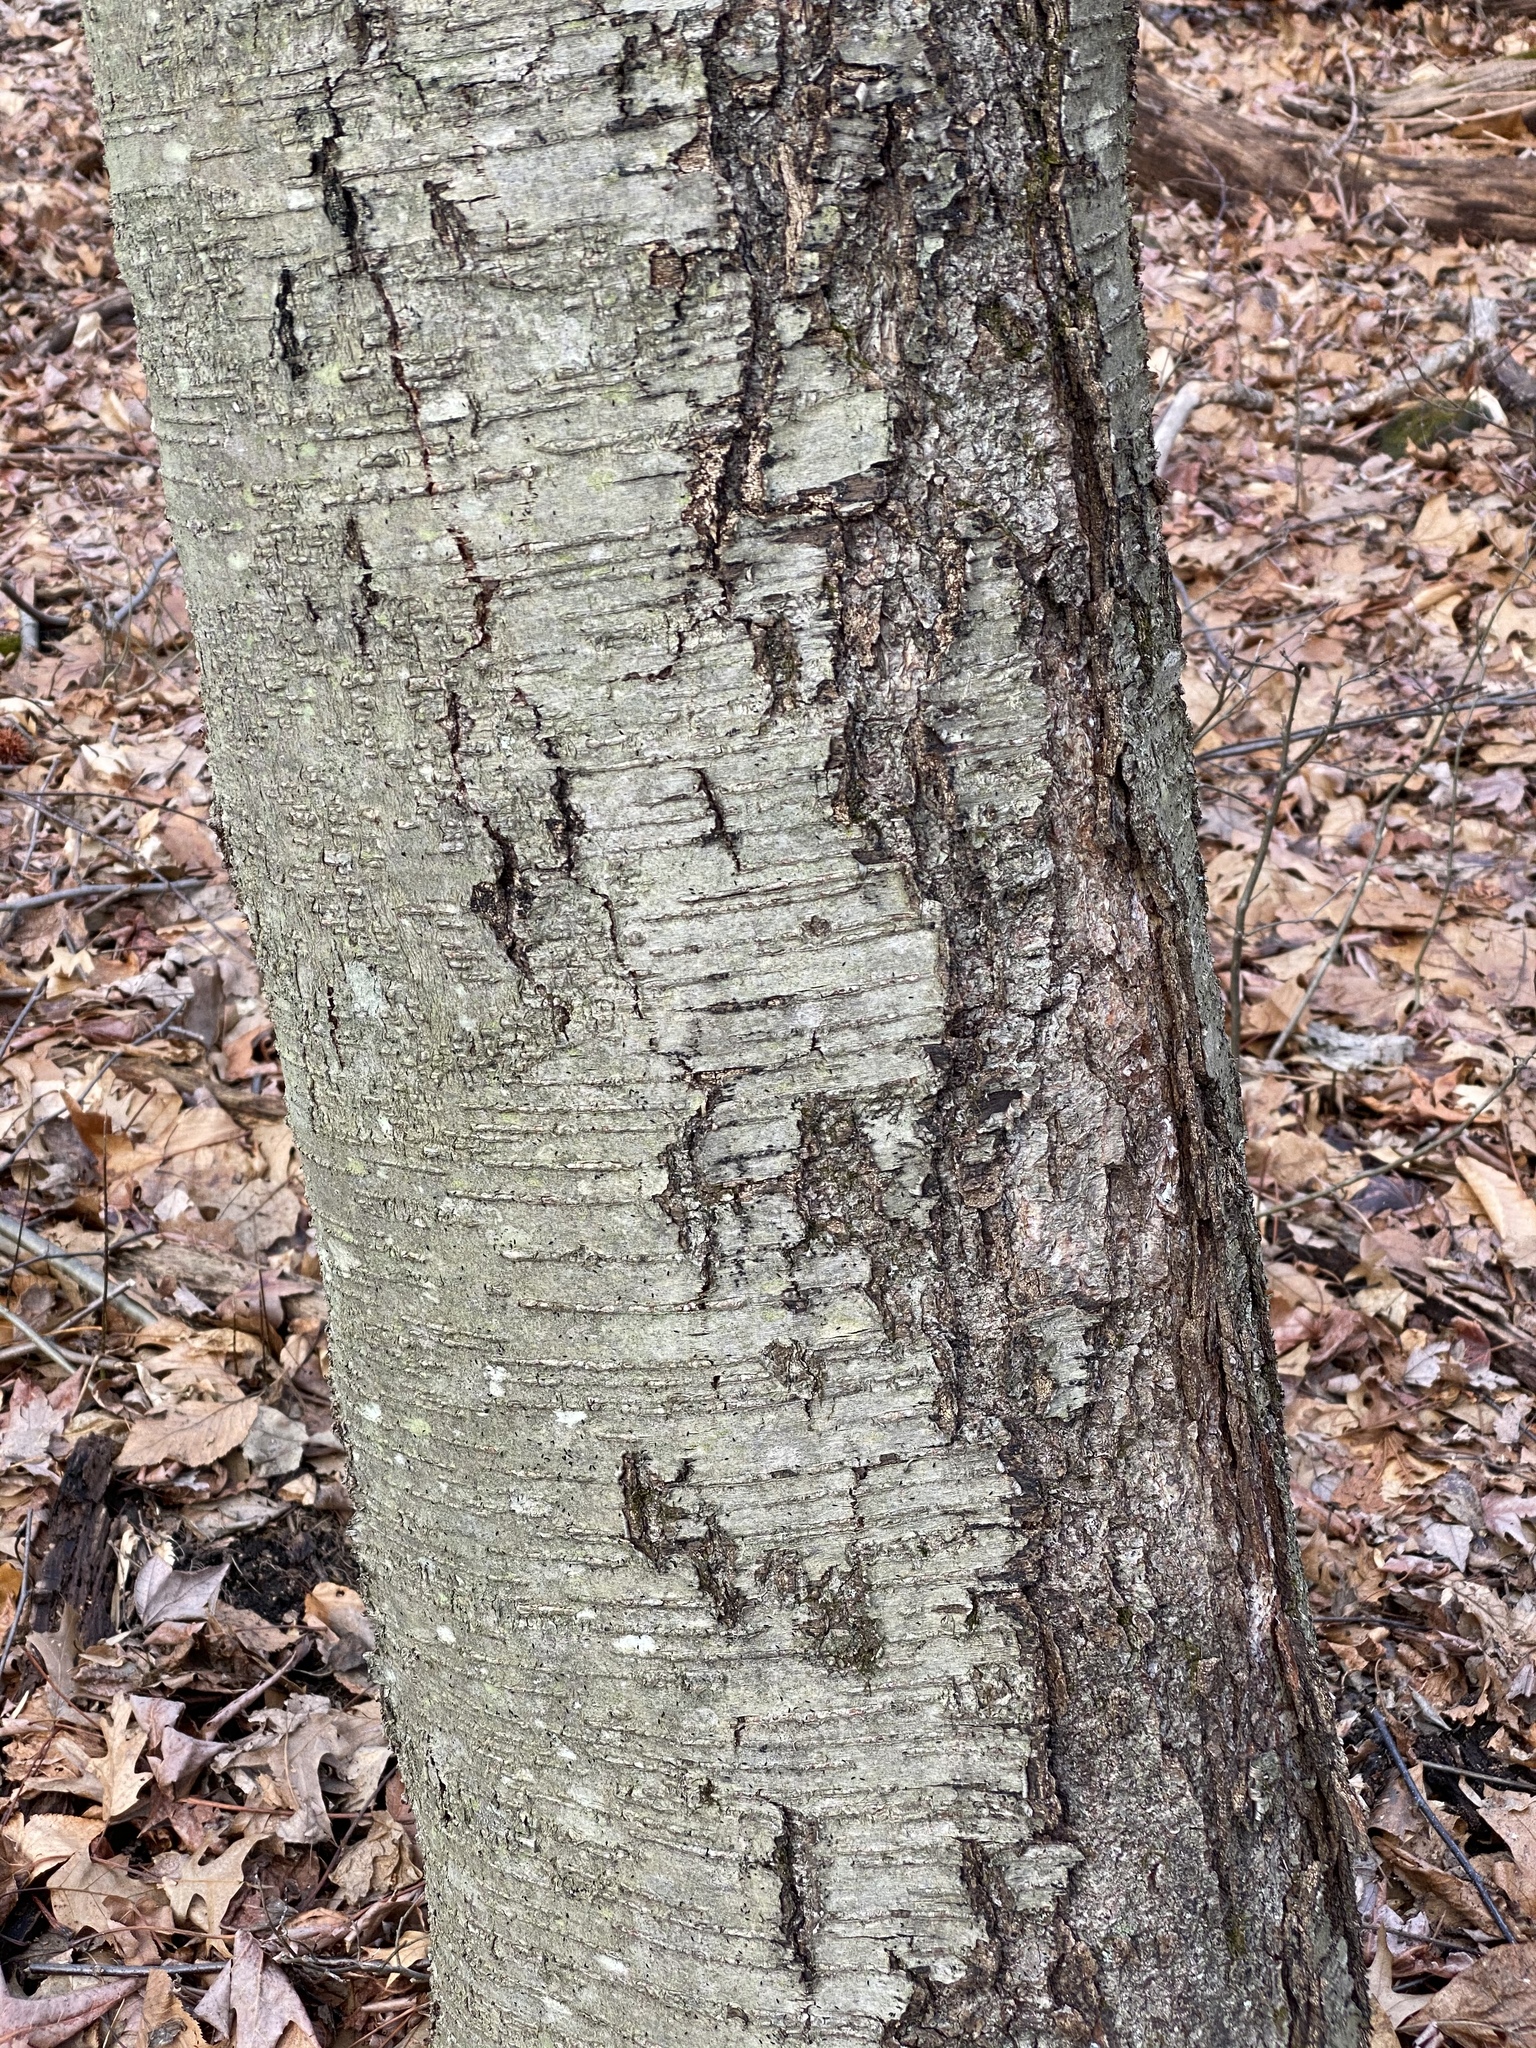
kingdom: Plantae
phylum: Tracheophyta
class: Magnoliopsida
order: Fagales
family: Betulaceae
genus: Betula
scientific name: Betula lenta
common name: Black birch
